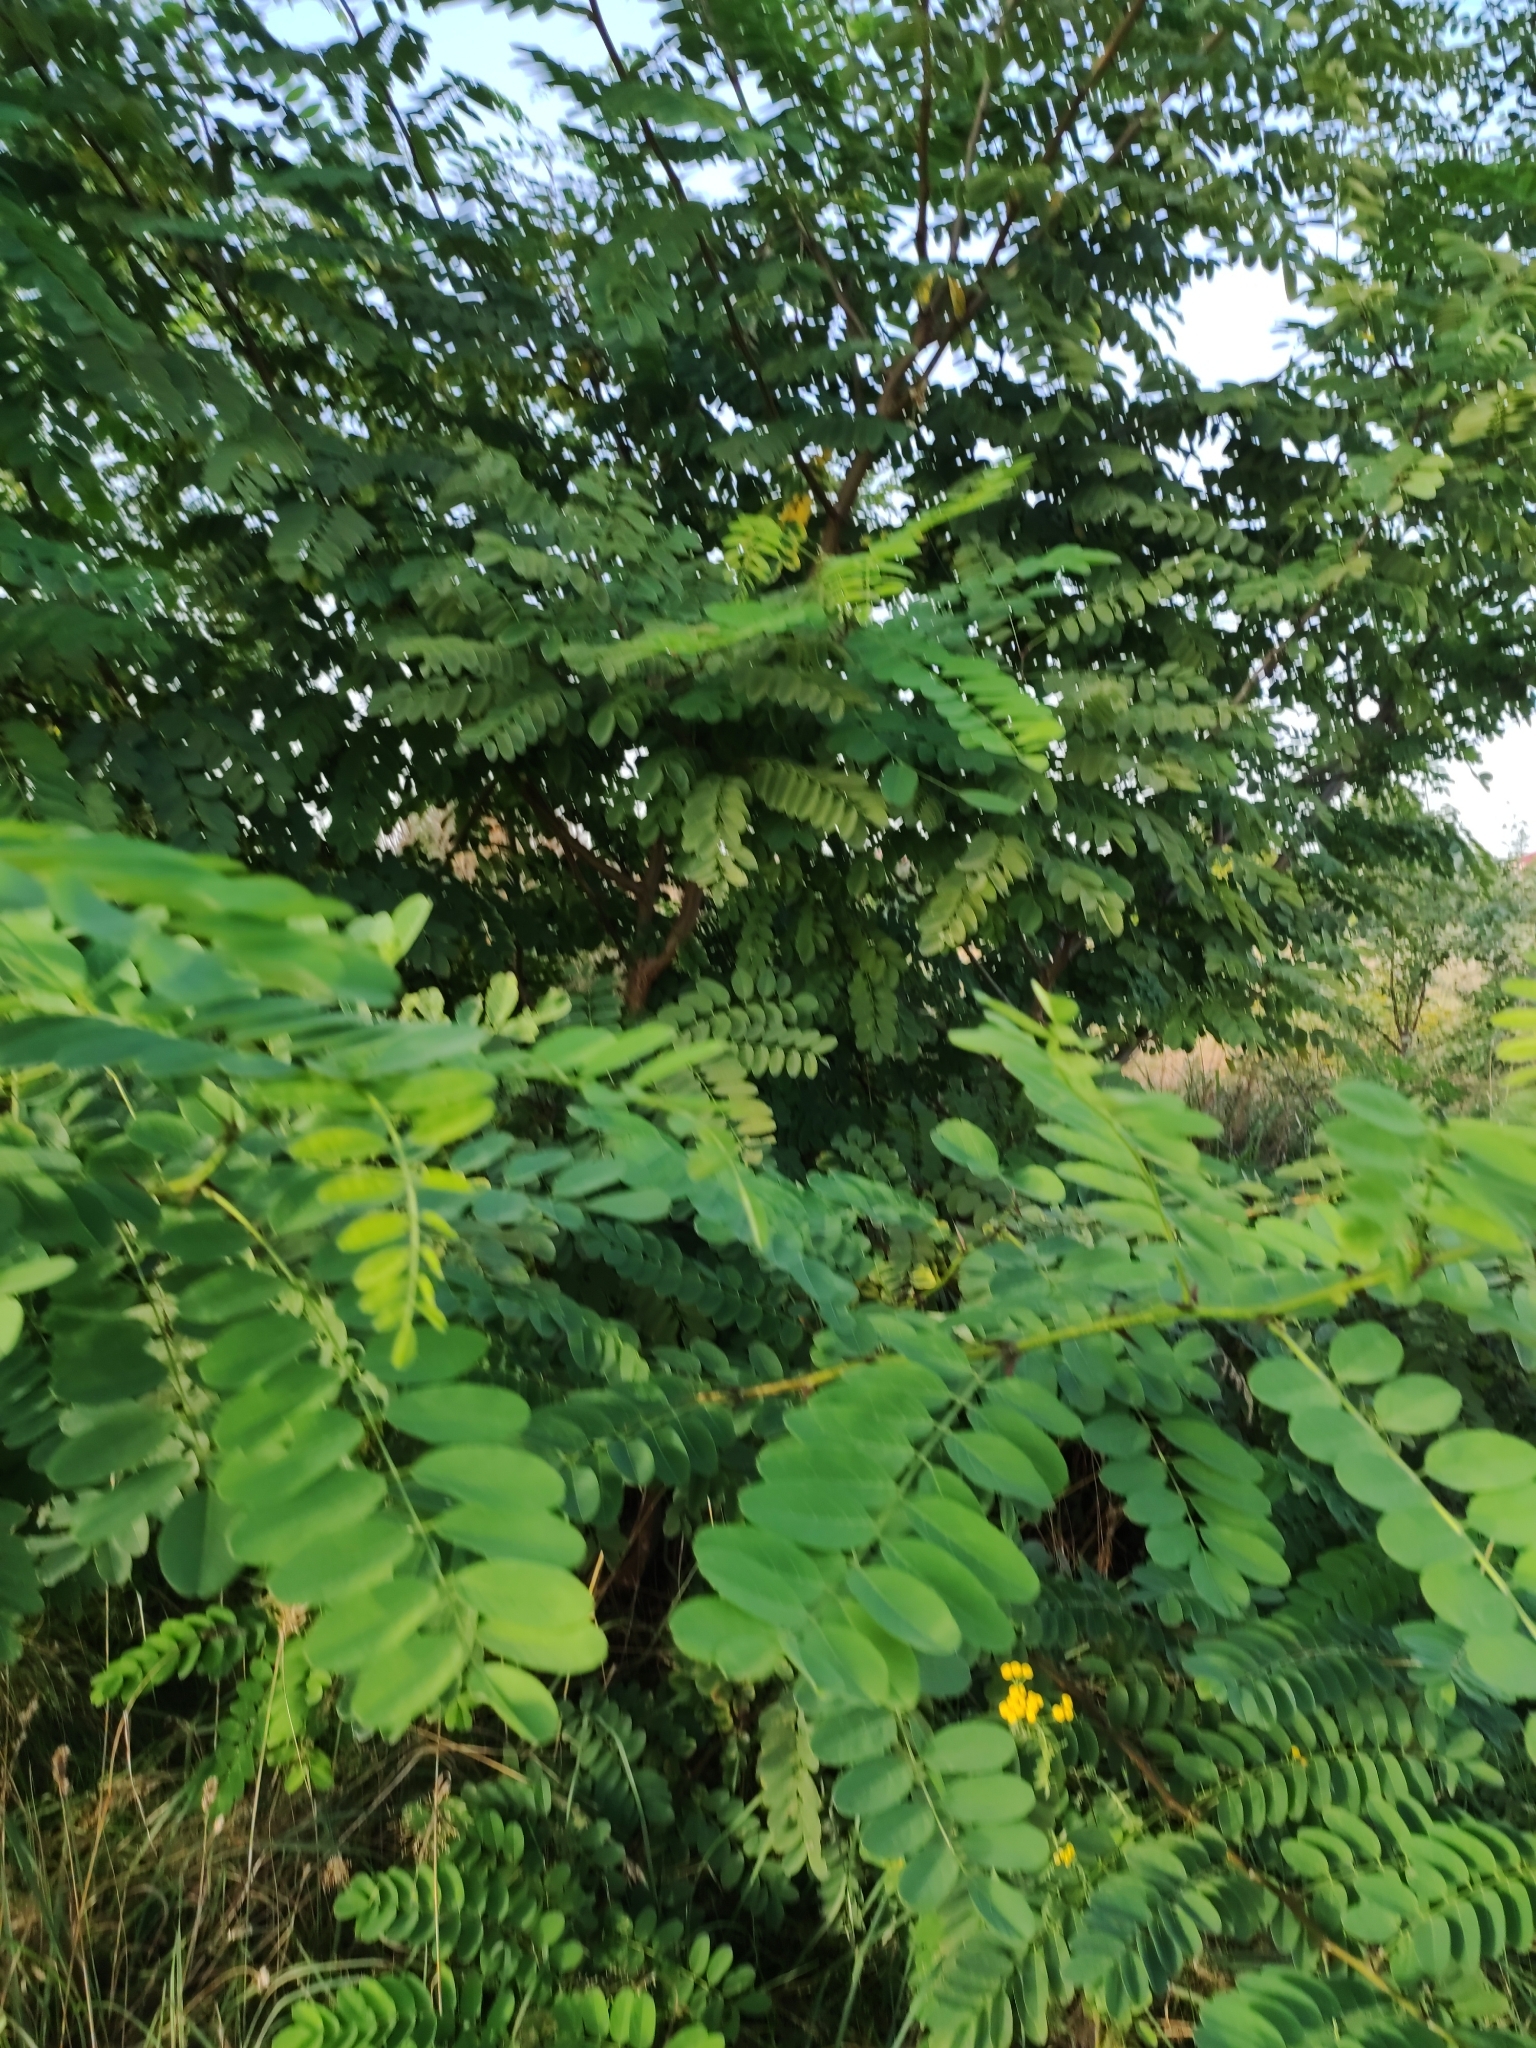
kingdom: Plantae
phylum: Tracheophyta
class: Magnoliopsida
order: Fabales
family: Fabaceae
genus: Robinia
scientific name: Robinia pseudoacacia
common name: Black locust
